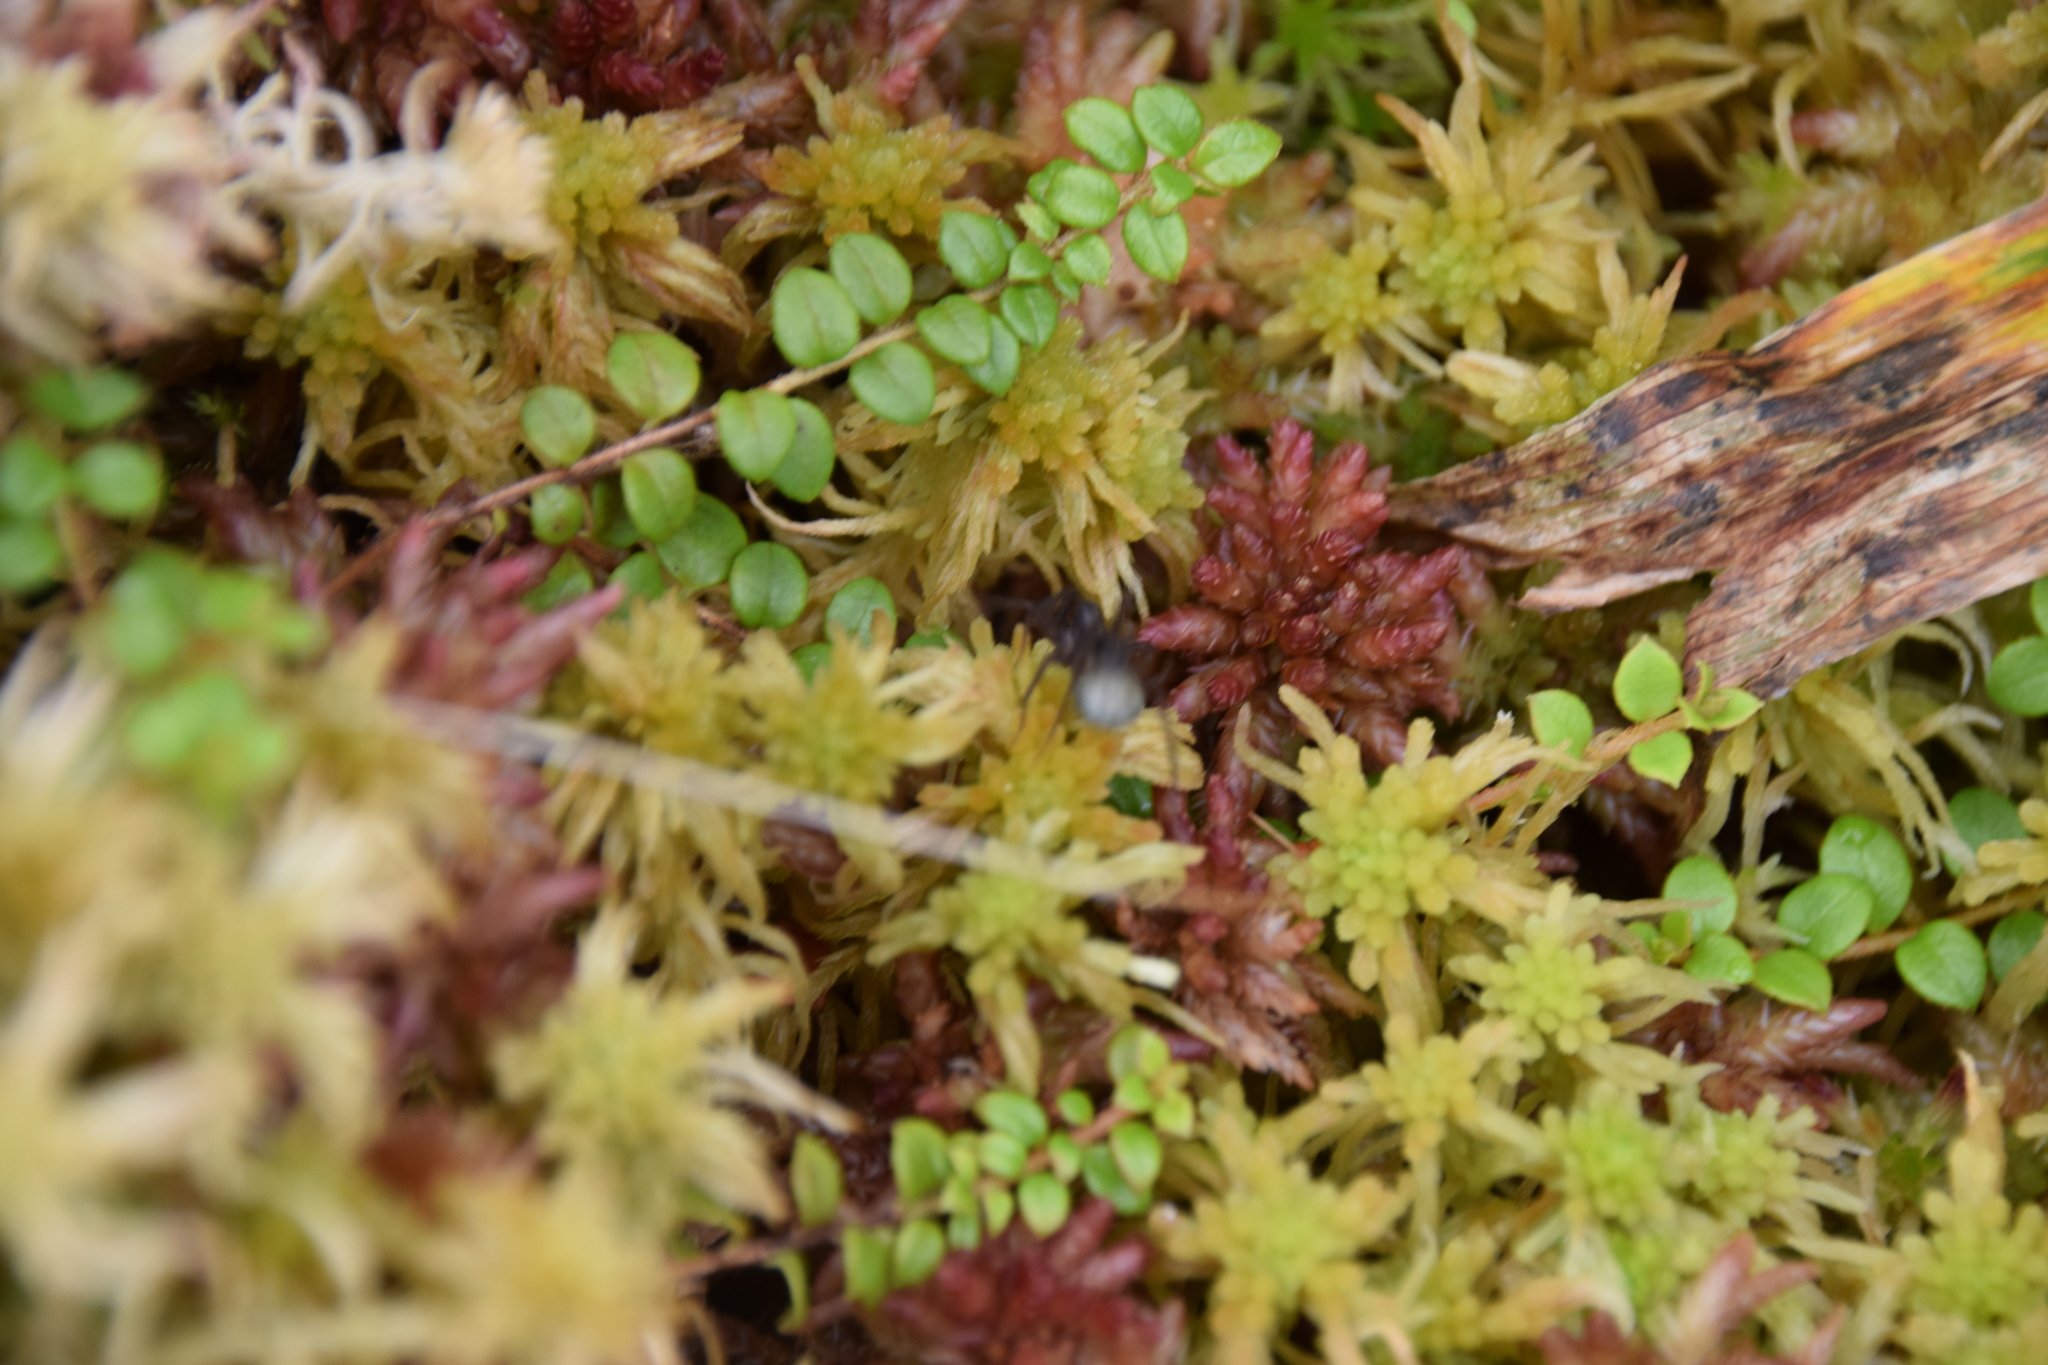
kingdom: Plantae
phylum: Tracheophyta
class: Magnoliopsida
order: Ericales
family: Ericaceae
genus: Gaultheria
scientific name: Gaultheria hispidula
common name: Cancer wintergreen
